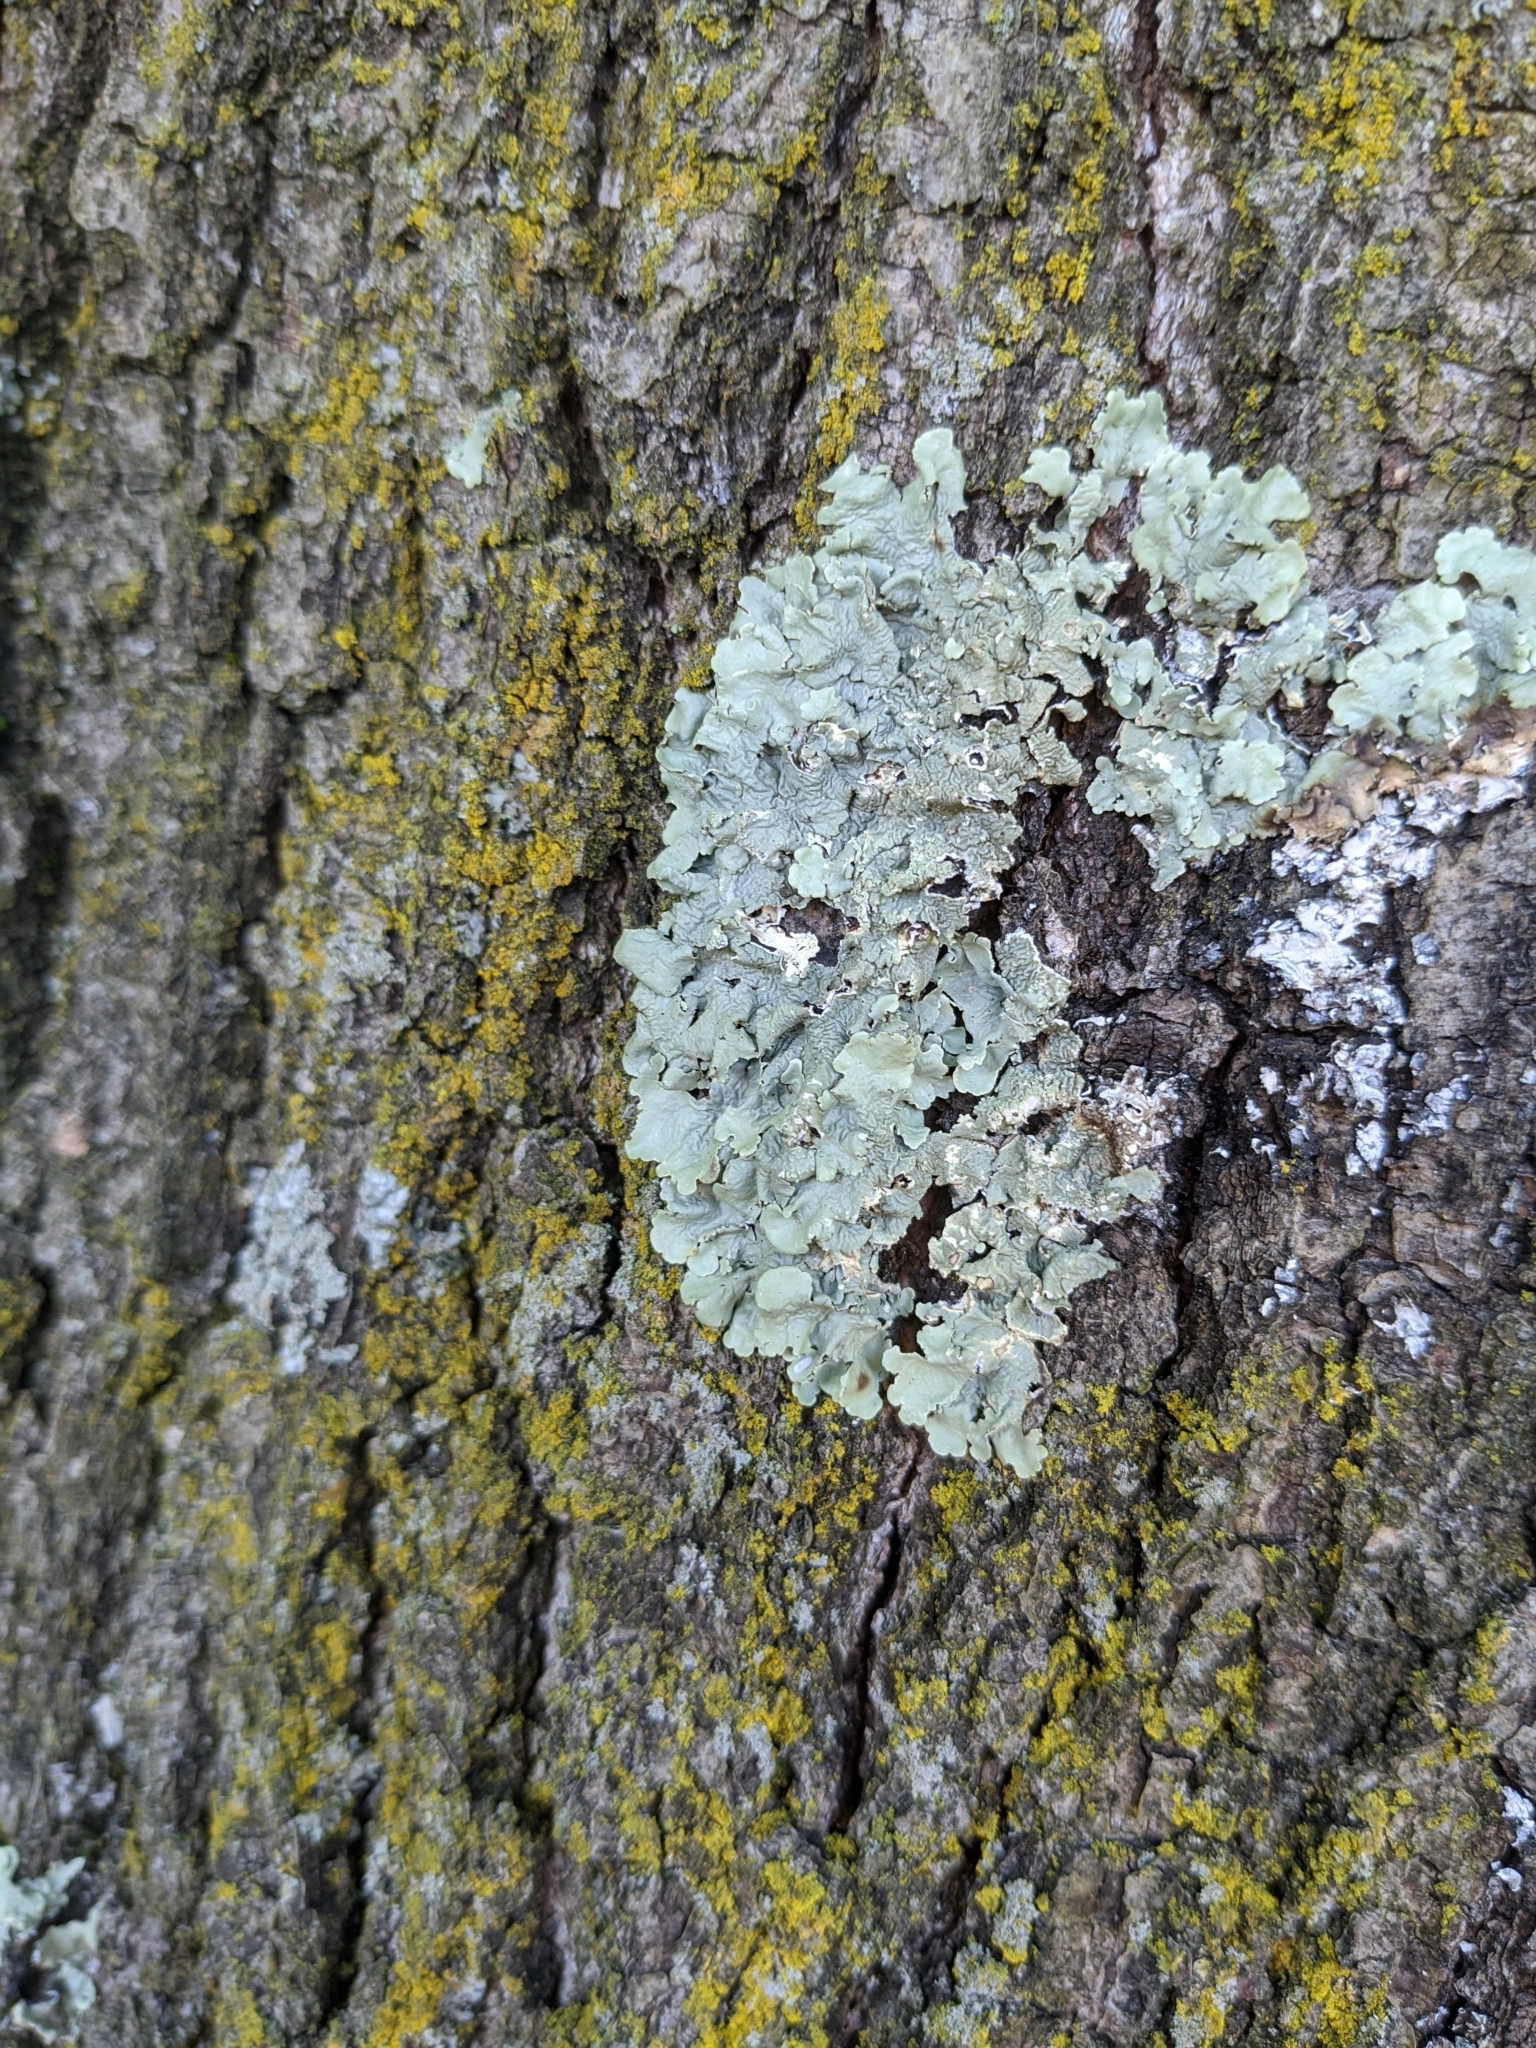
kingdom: Fungi
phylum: Ascomycota
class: Lecanoromycetes
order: Lecanorales
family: Parmeliaceae
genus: Flavoparmelia
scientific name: Flavoparmelia caperata
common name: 40-mile per hour lichen
